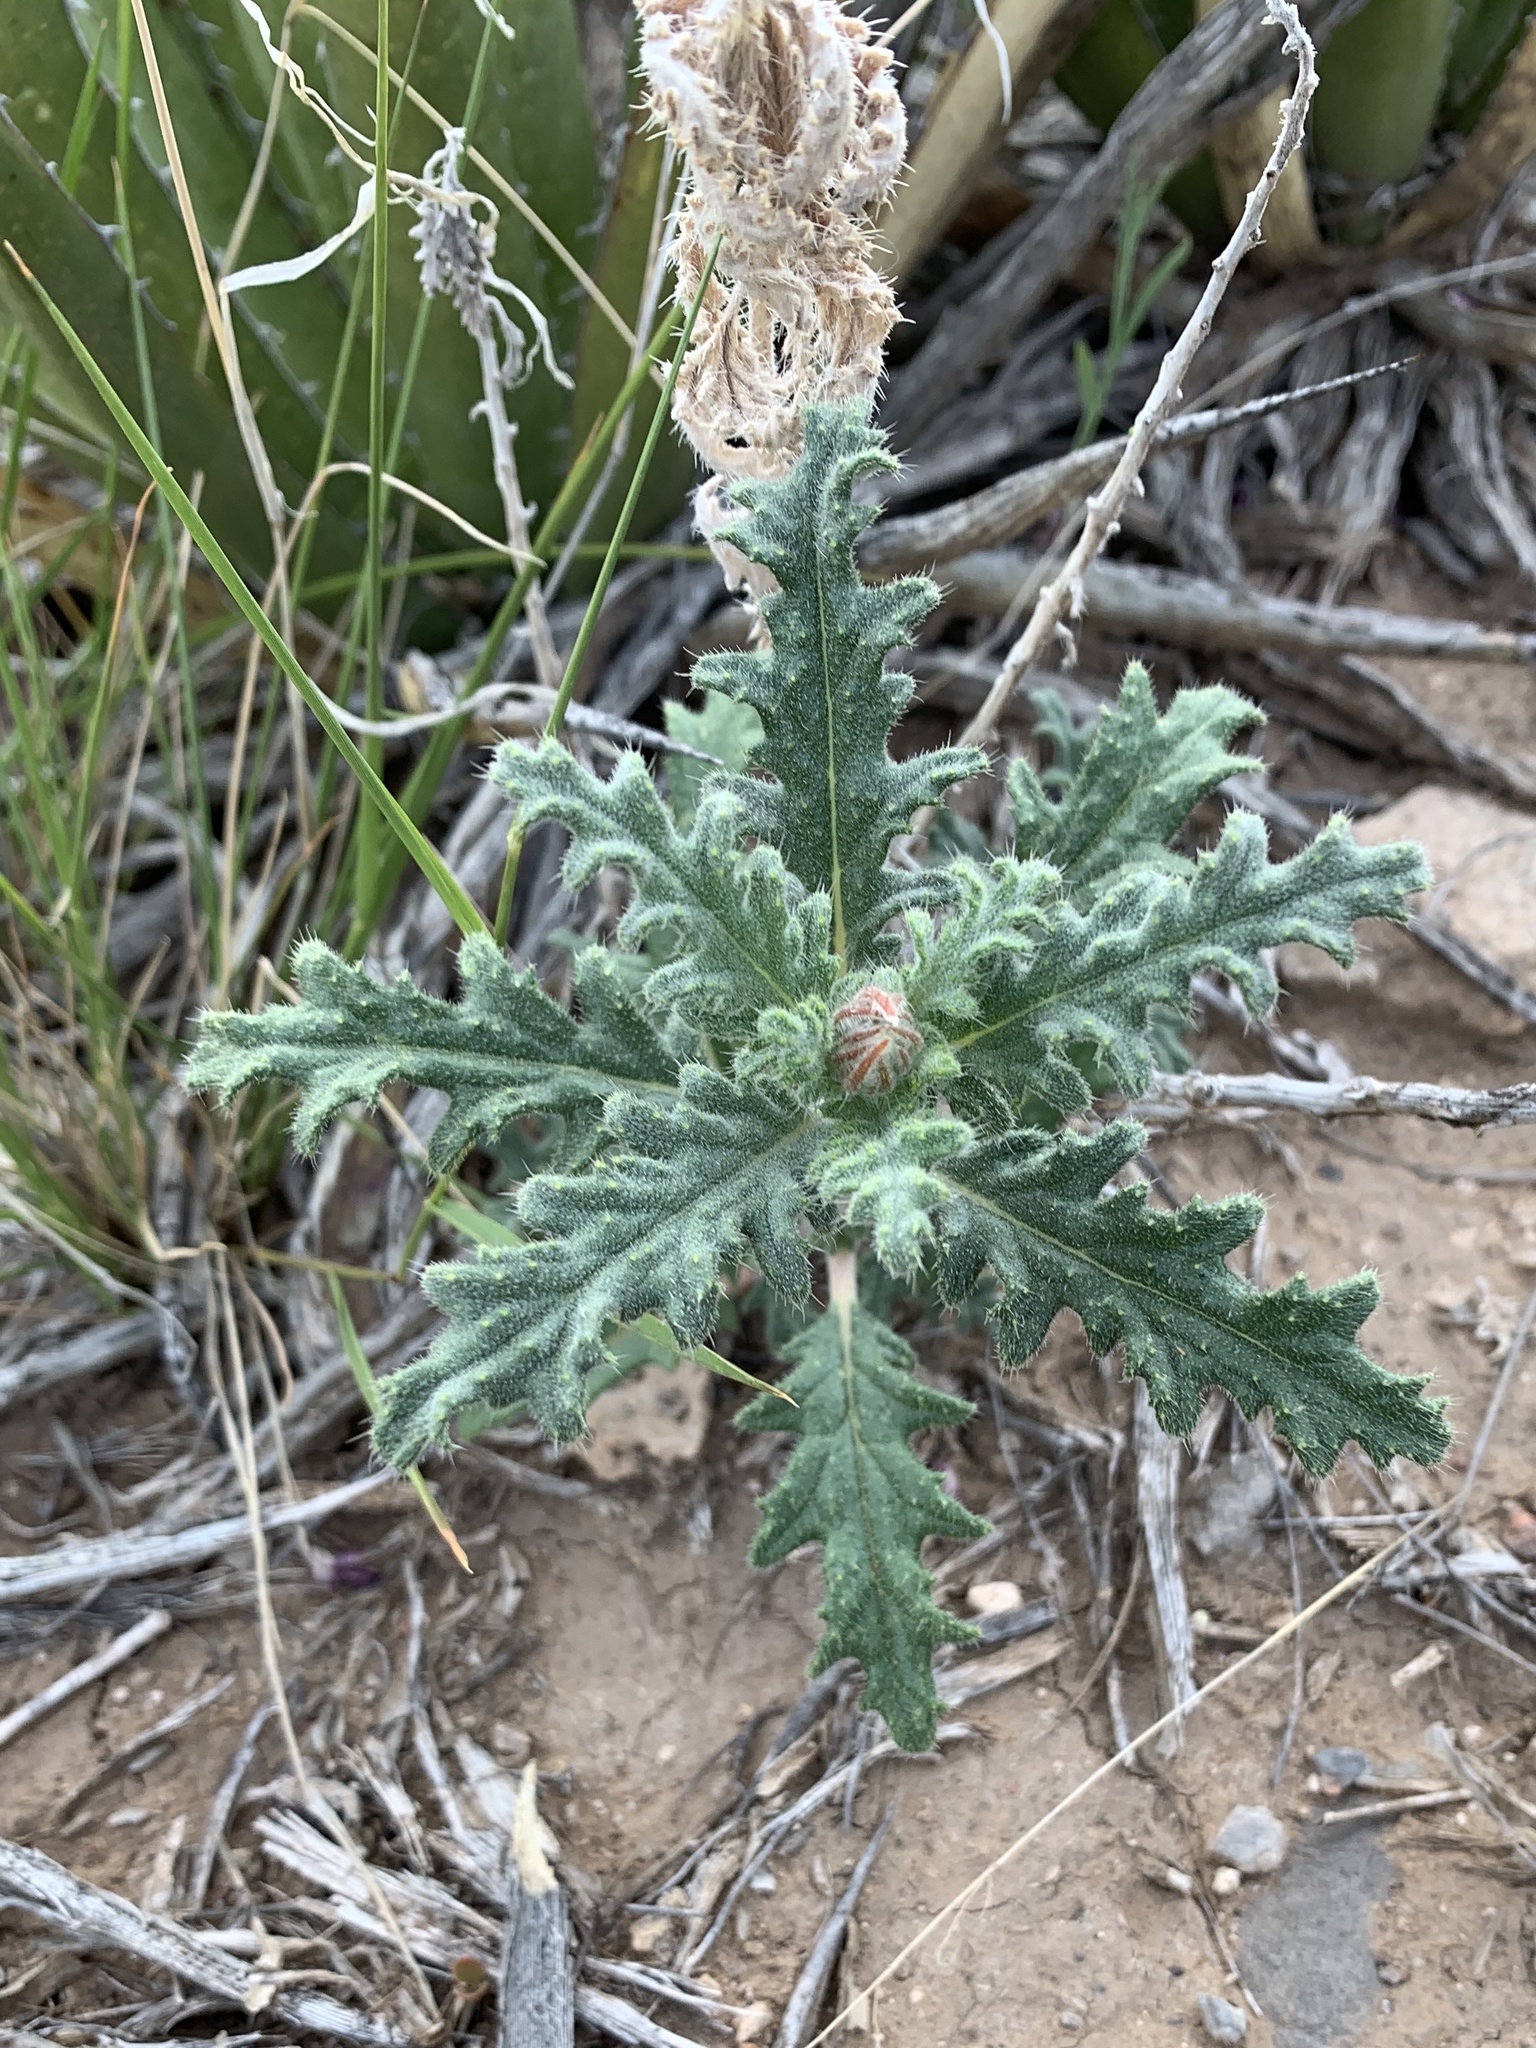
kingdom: Plantae
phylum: Tracheophyta
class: Magnoliopsida
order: Cornales
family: Loasaceae
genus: Cevallia
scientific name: Cevallia sinuata
